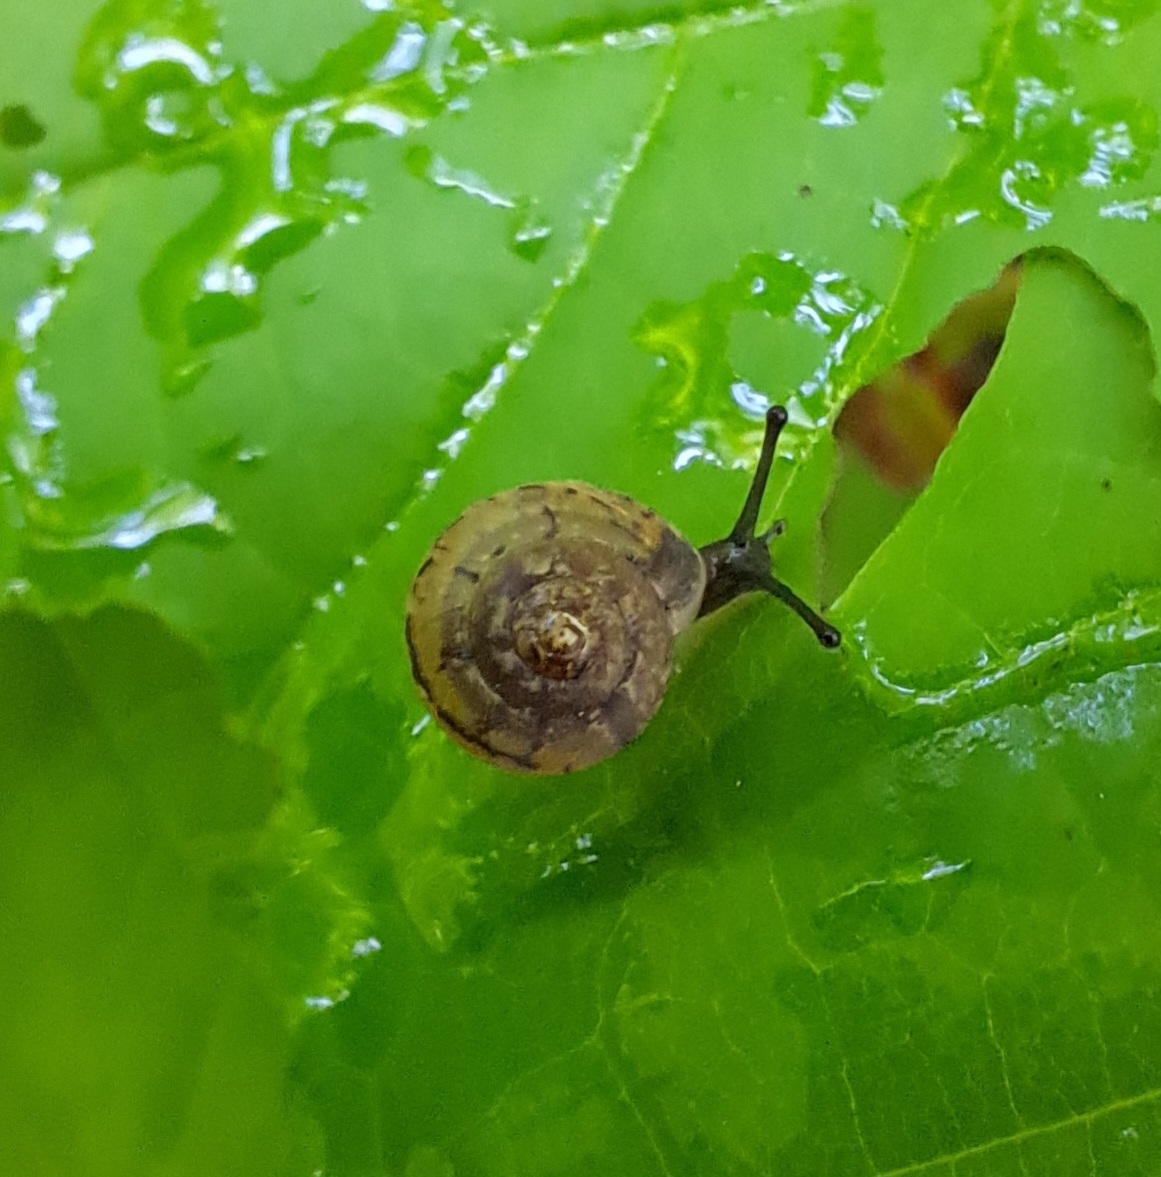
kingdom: Animalia
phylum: Mollusca
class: Gastropoda
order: Stylommatophora
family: Hygromiidae
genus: Monachoides
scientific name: Monachoides incarnatus
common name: Incarnate snail
